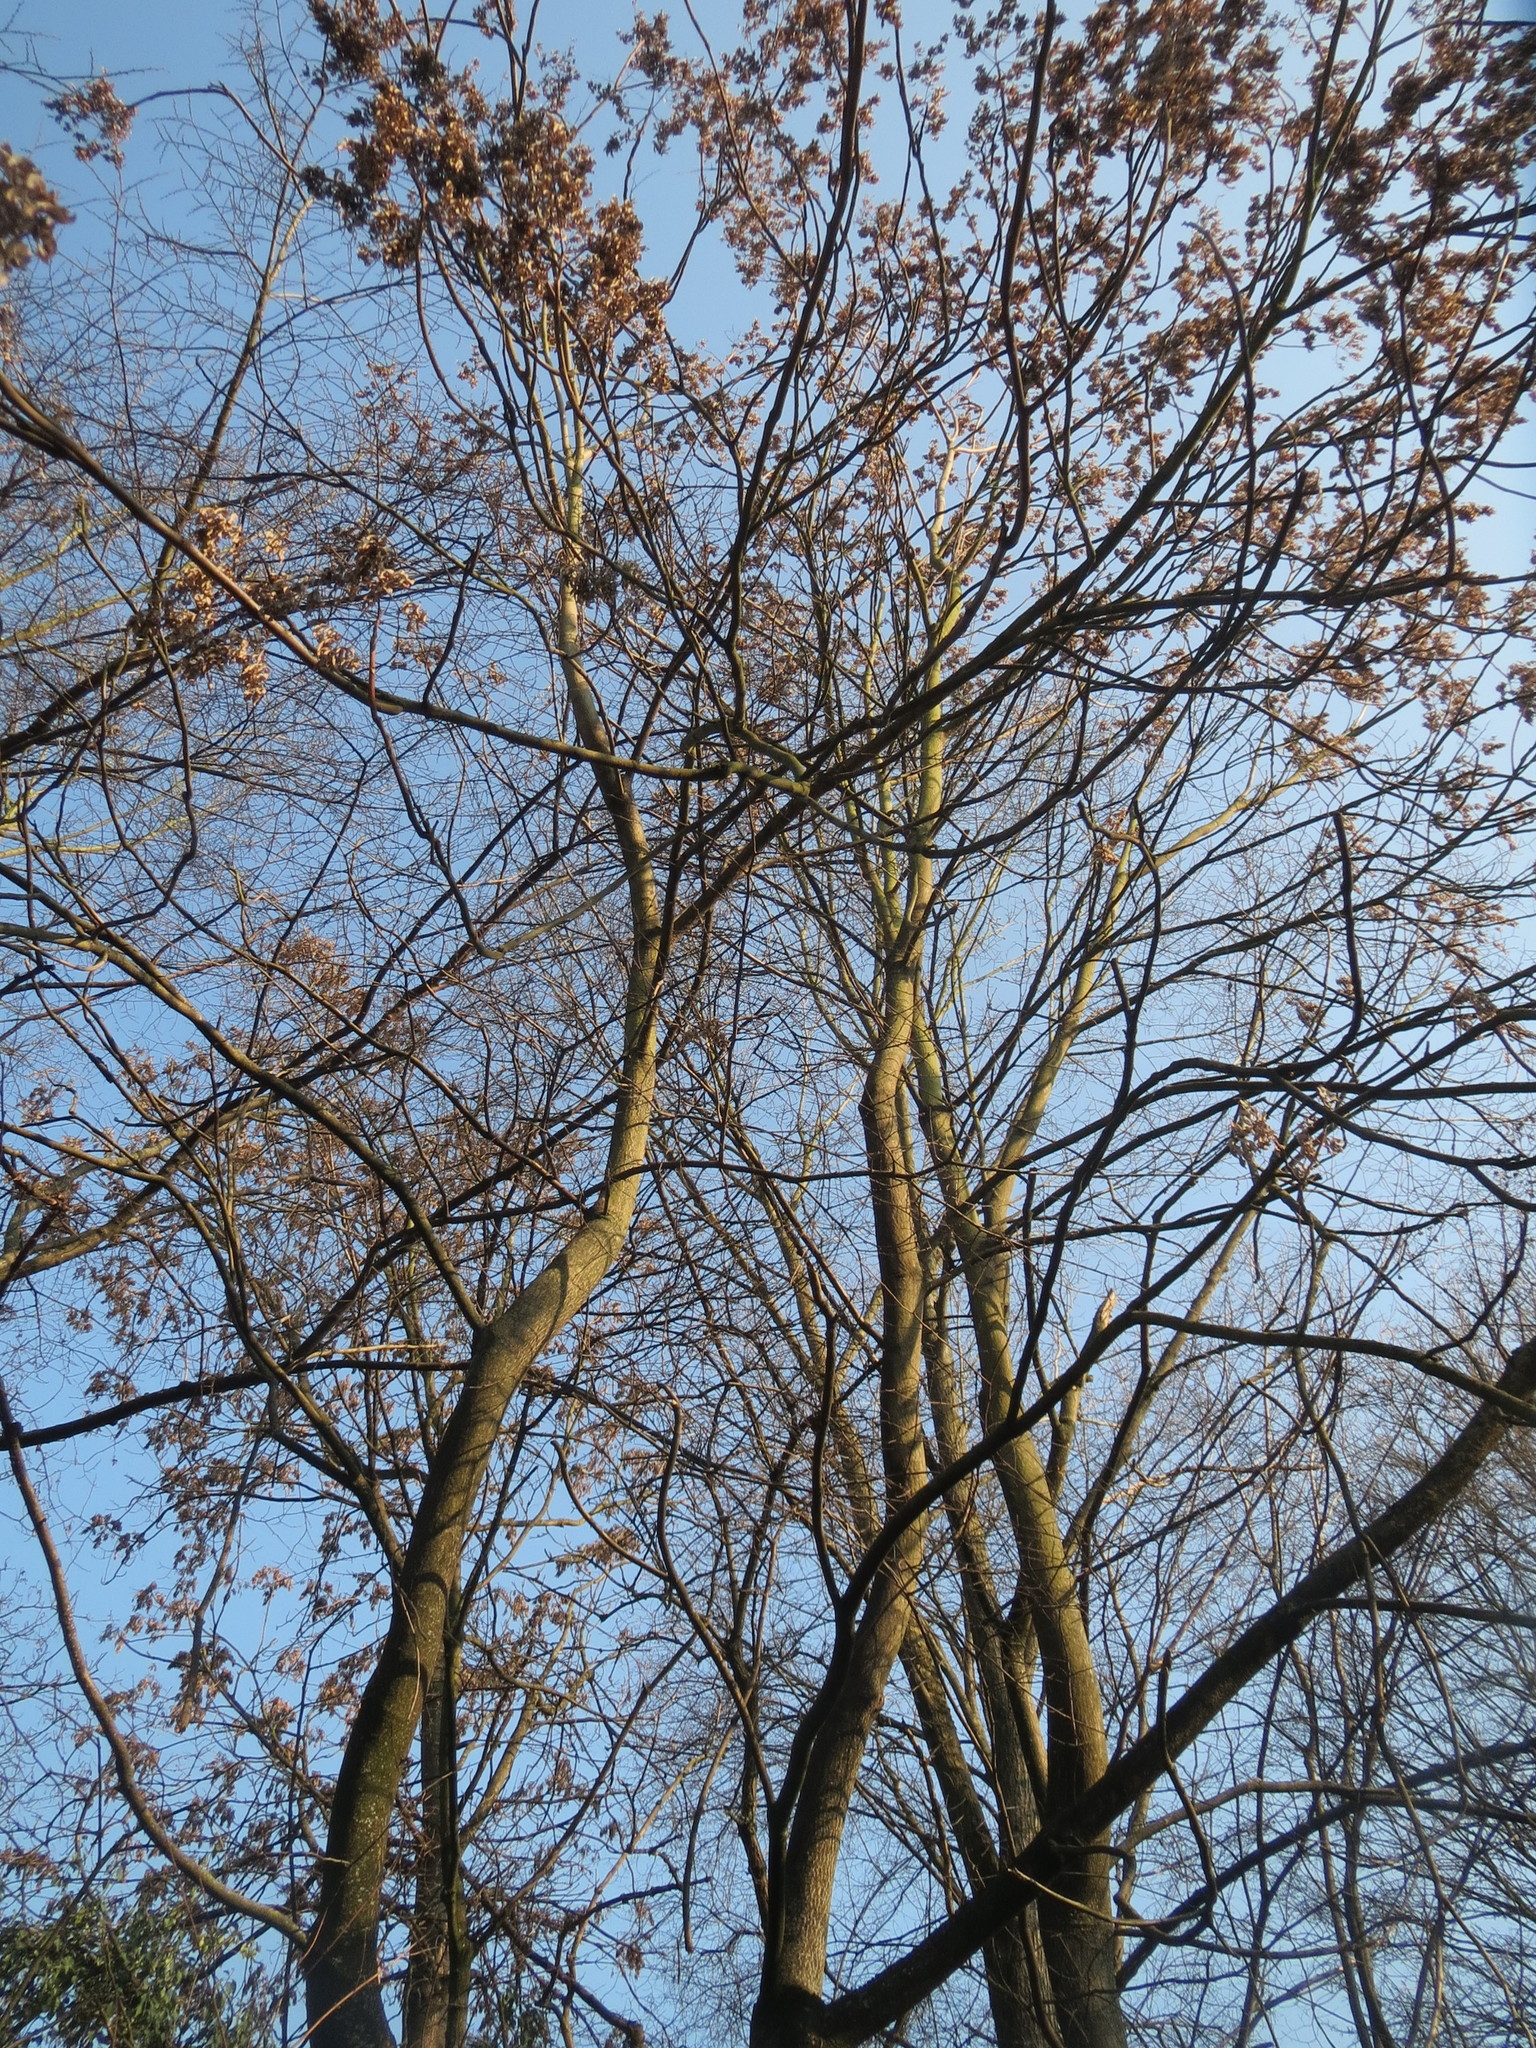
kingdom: Plantae
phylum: Tracheophyta
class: Magnoliopsida
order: Sapindales
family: Simaroubaceae
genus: Ailanthus
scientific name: Ailanthus altissima
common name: Tree-of-heaven
